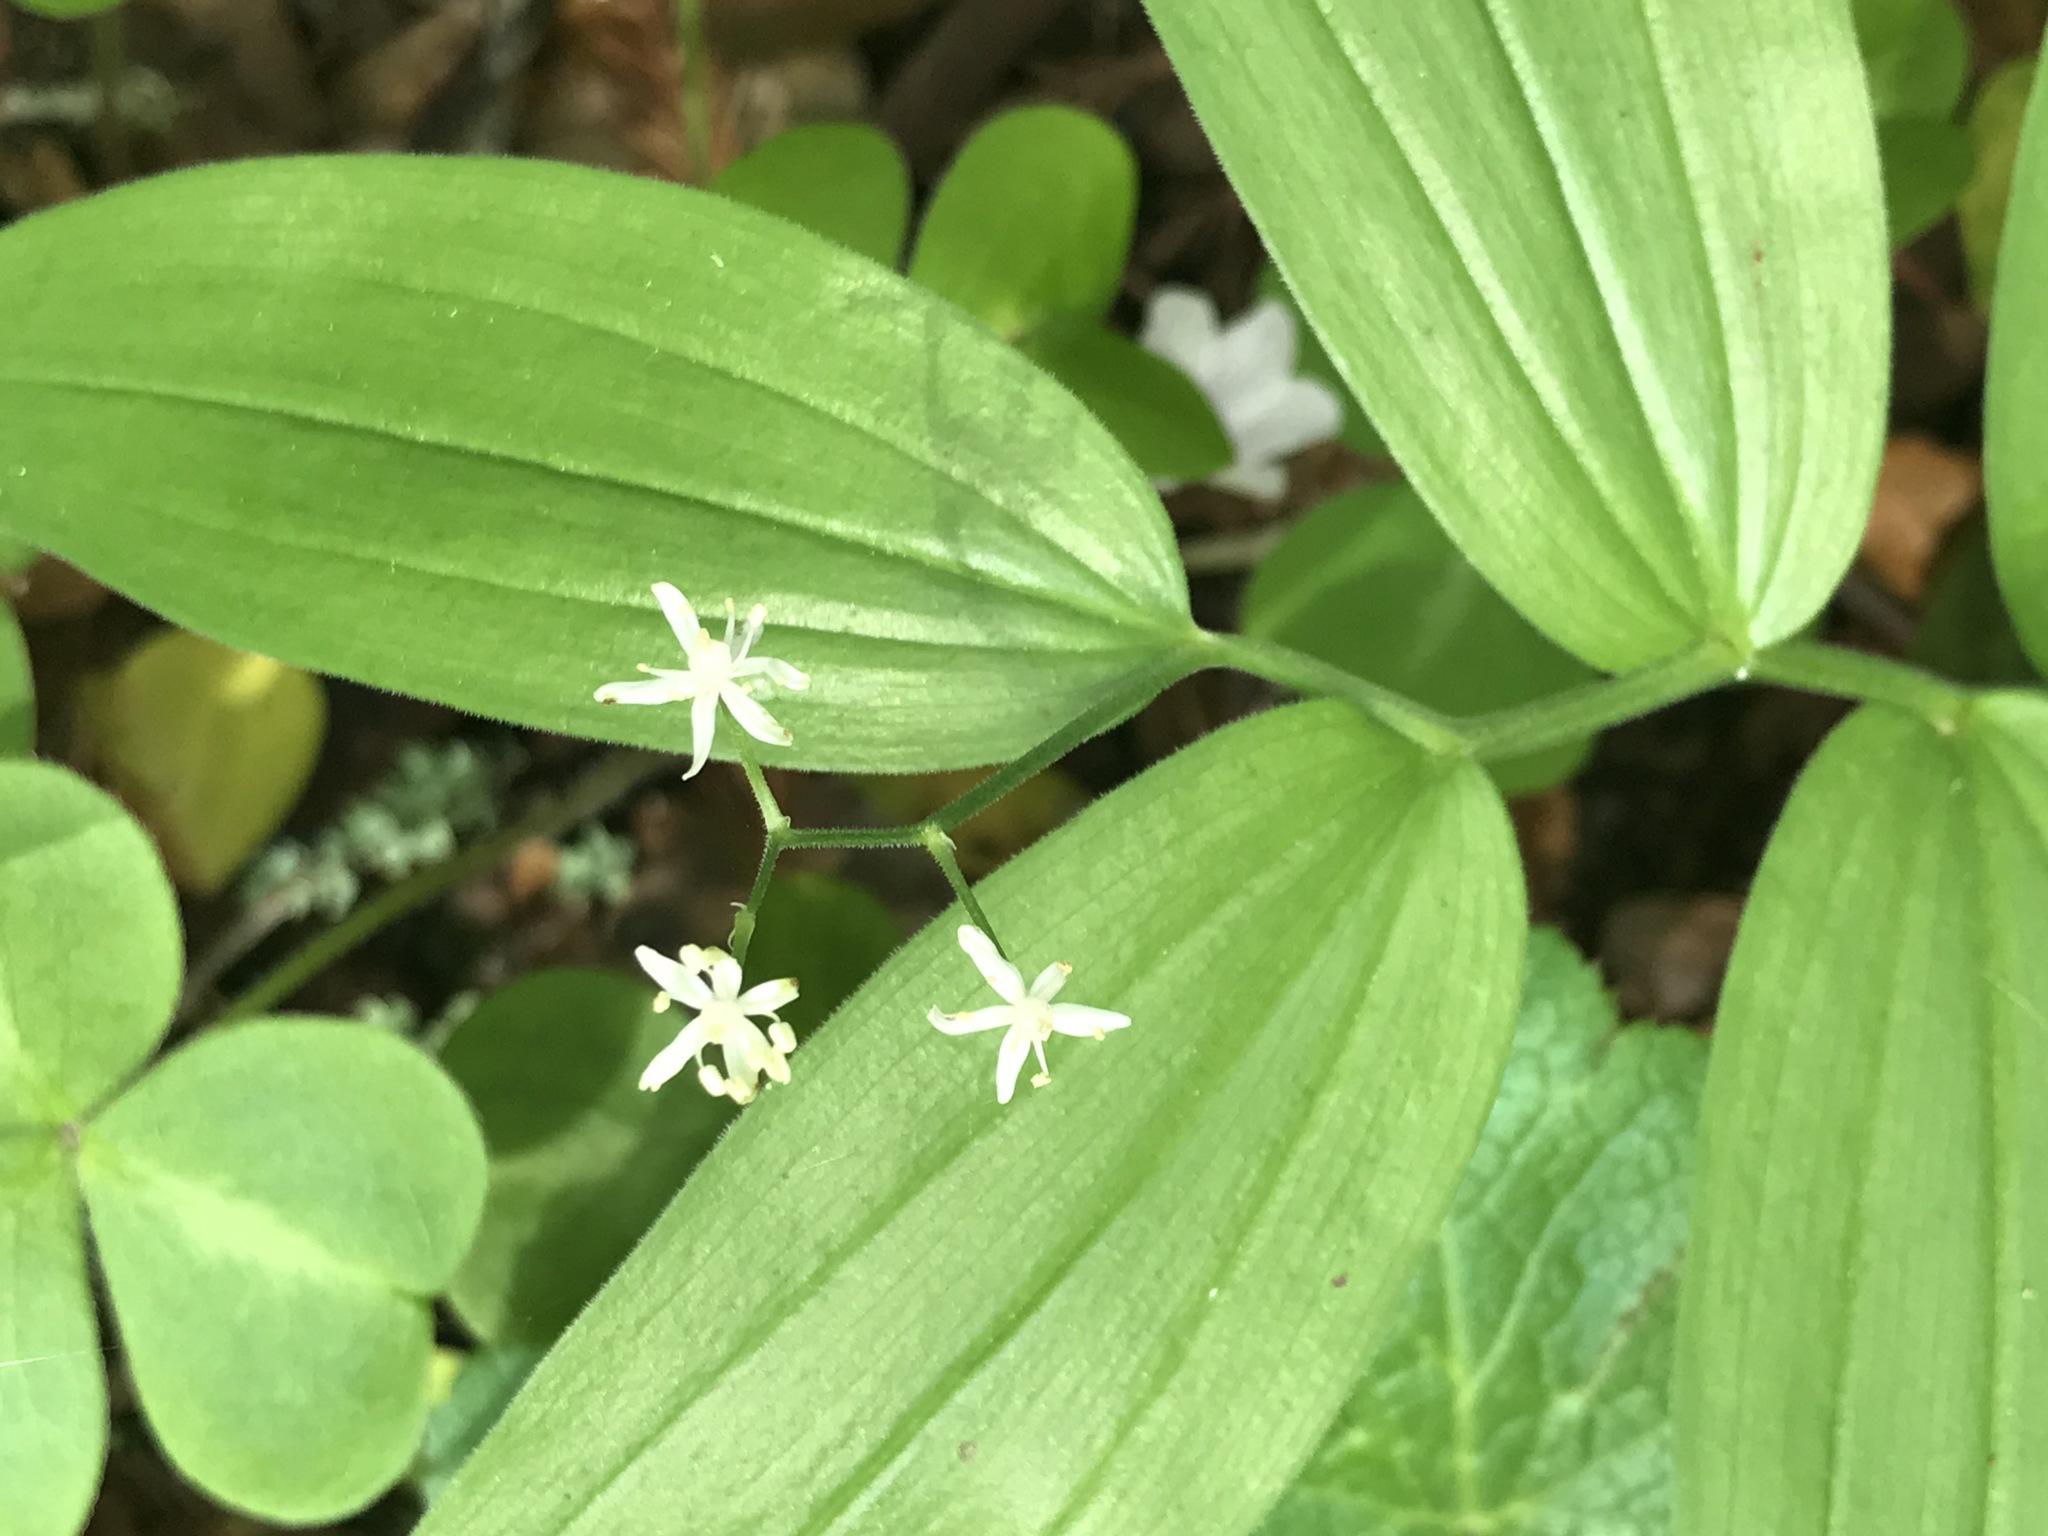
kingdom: Plantae
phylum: Tracheophyta
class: Liliopsida
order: Asparagales
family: Asparagaceae
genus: Maianthemum
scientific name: Maianthemum stellatum
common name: Little false solomon's seal
